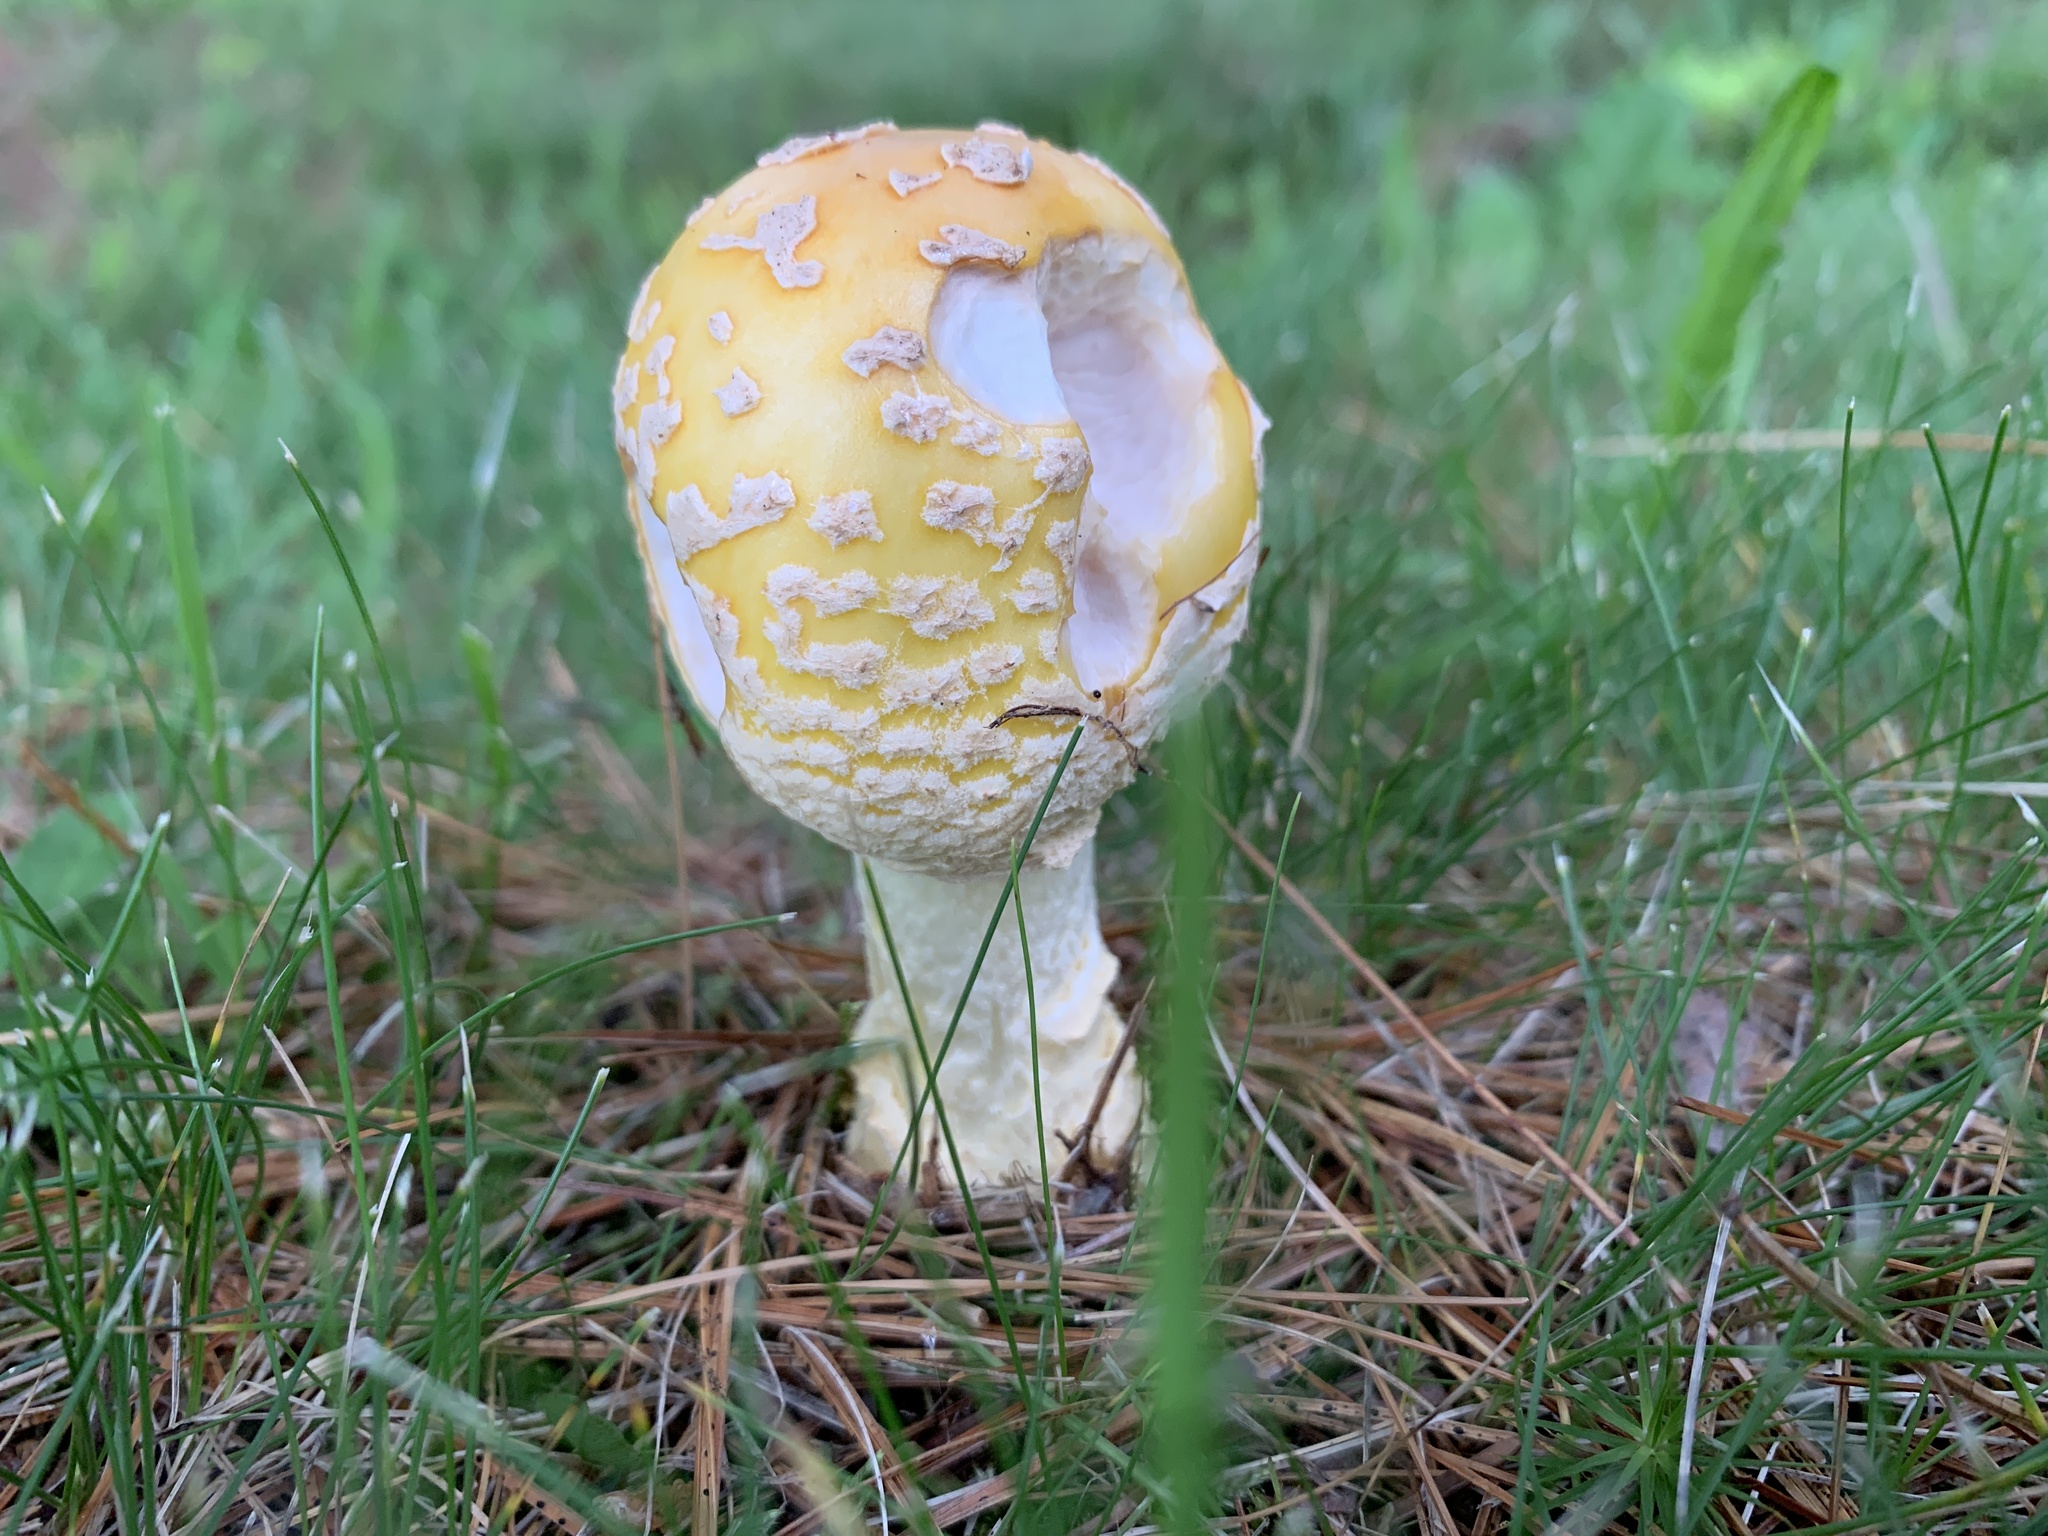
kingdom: Fungi
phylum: Basidiomycota
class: Agaricomycetes
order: Agaricales
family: Amanitaceae
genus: Amanita
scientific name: Amanita muscaria
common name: Fly agaric
